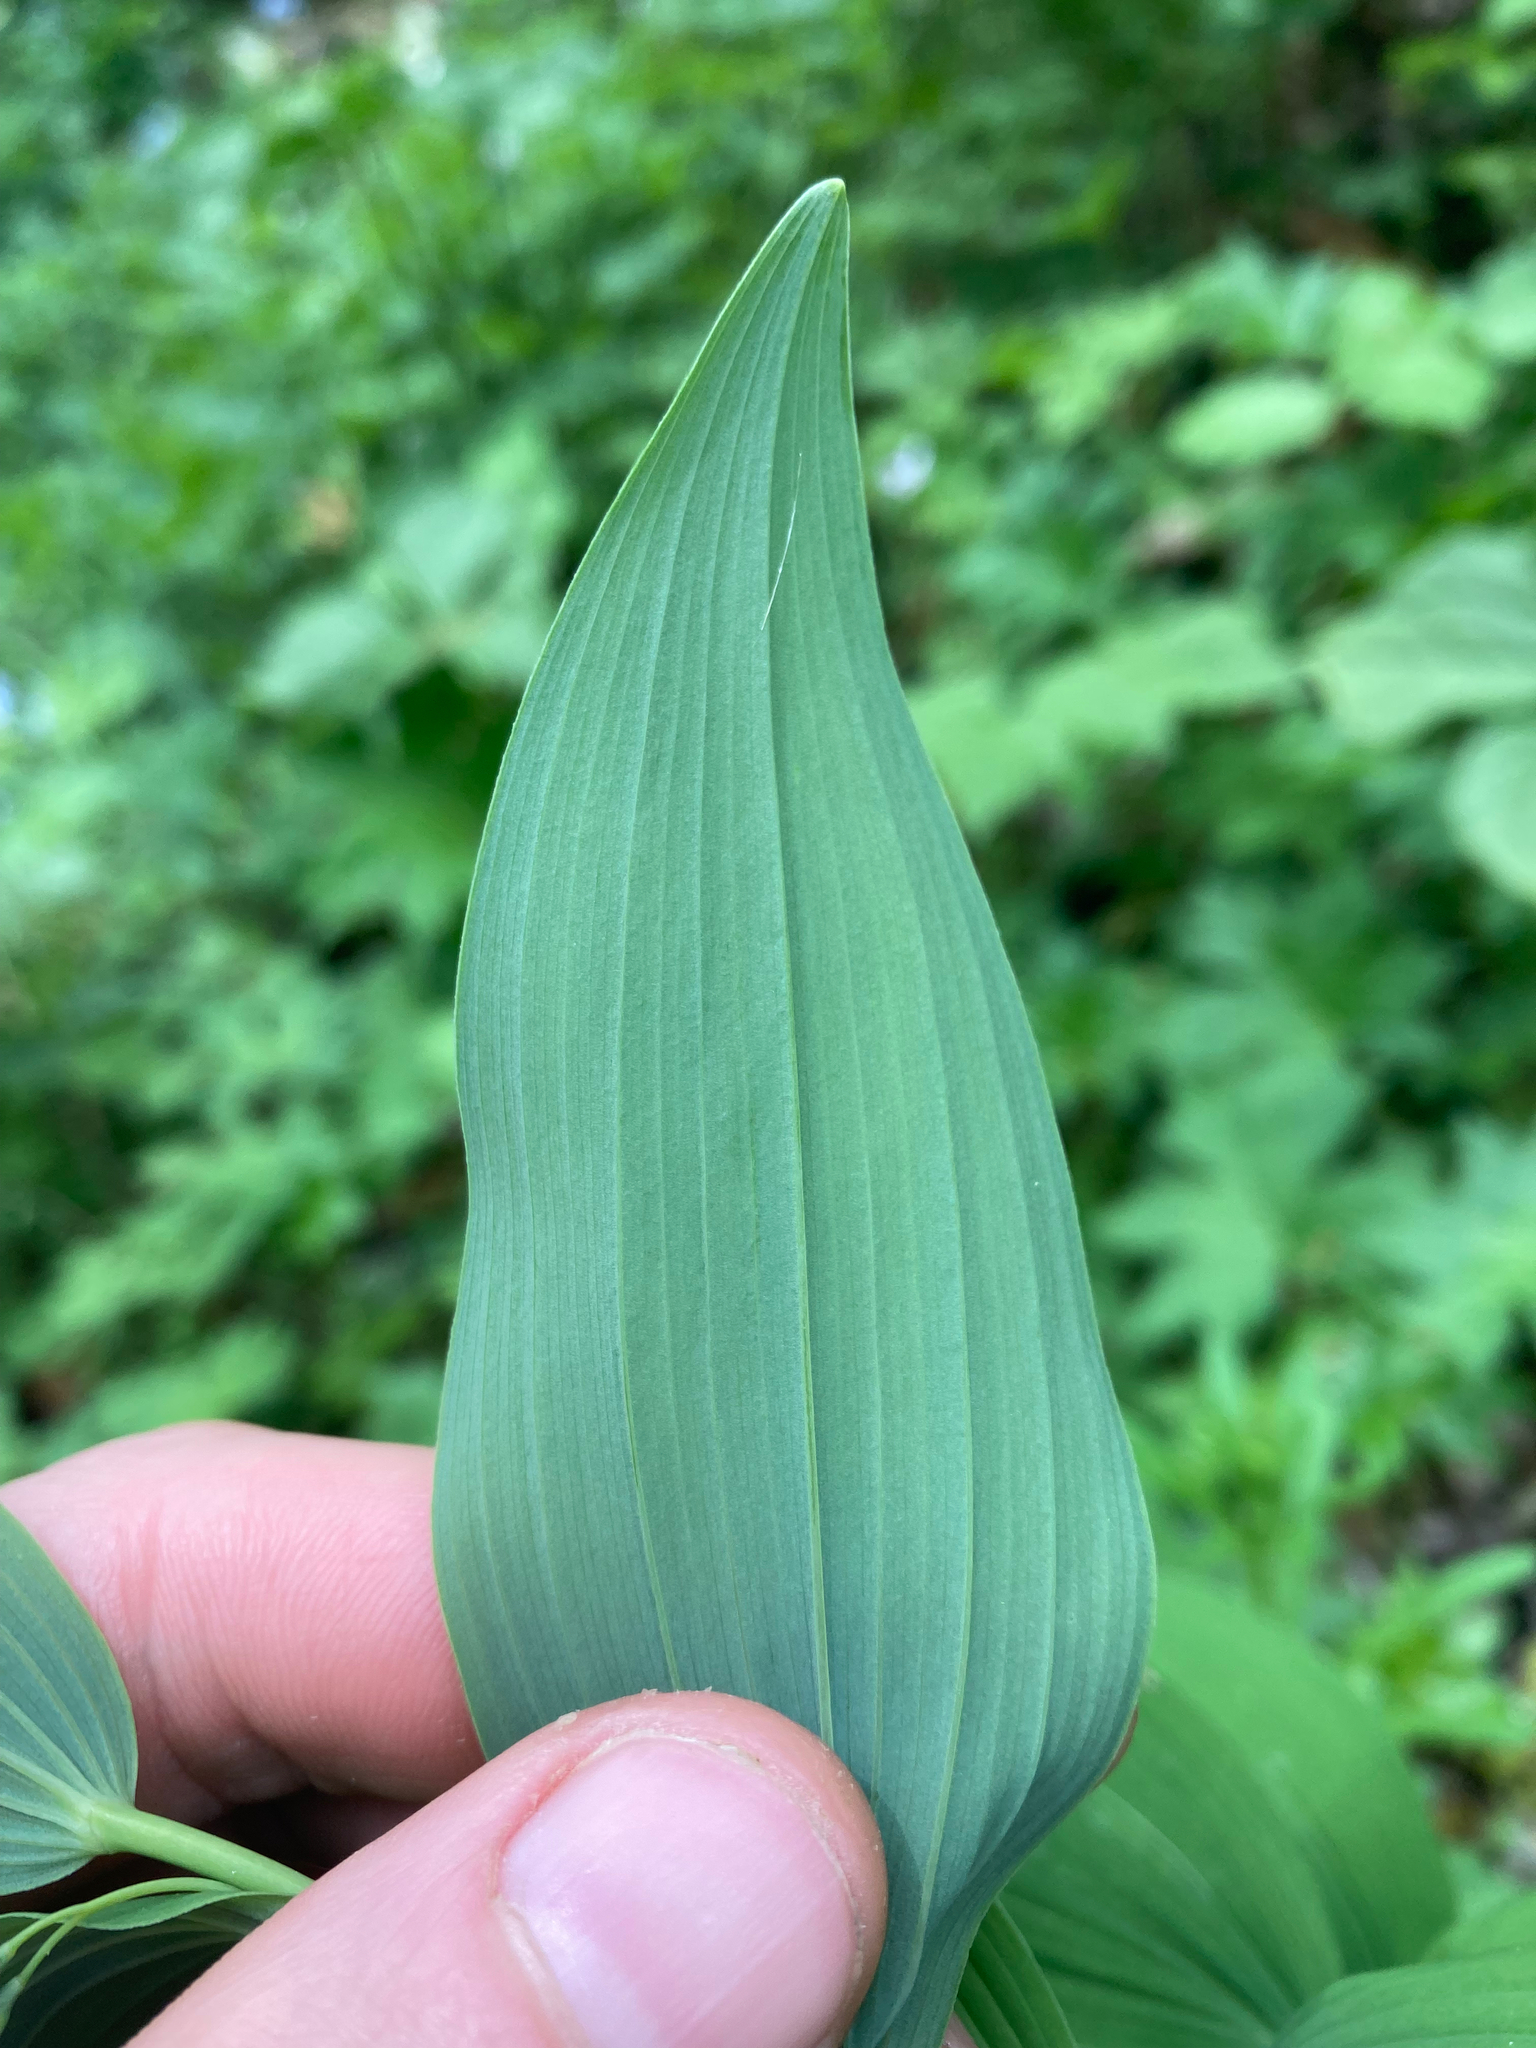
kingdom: Plantae
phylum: Tracheophyta
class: Liliopsida
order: Asparagales
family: Asparagaceae
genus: Polygonatum
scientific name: Polygonatum biflorum
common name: American solomon's-seal
